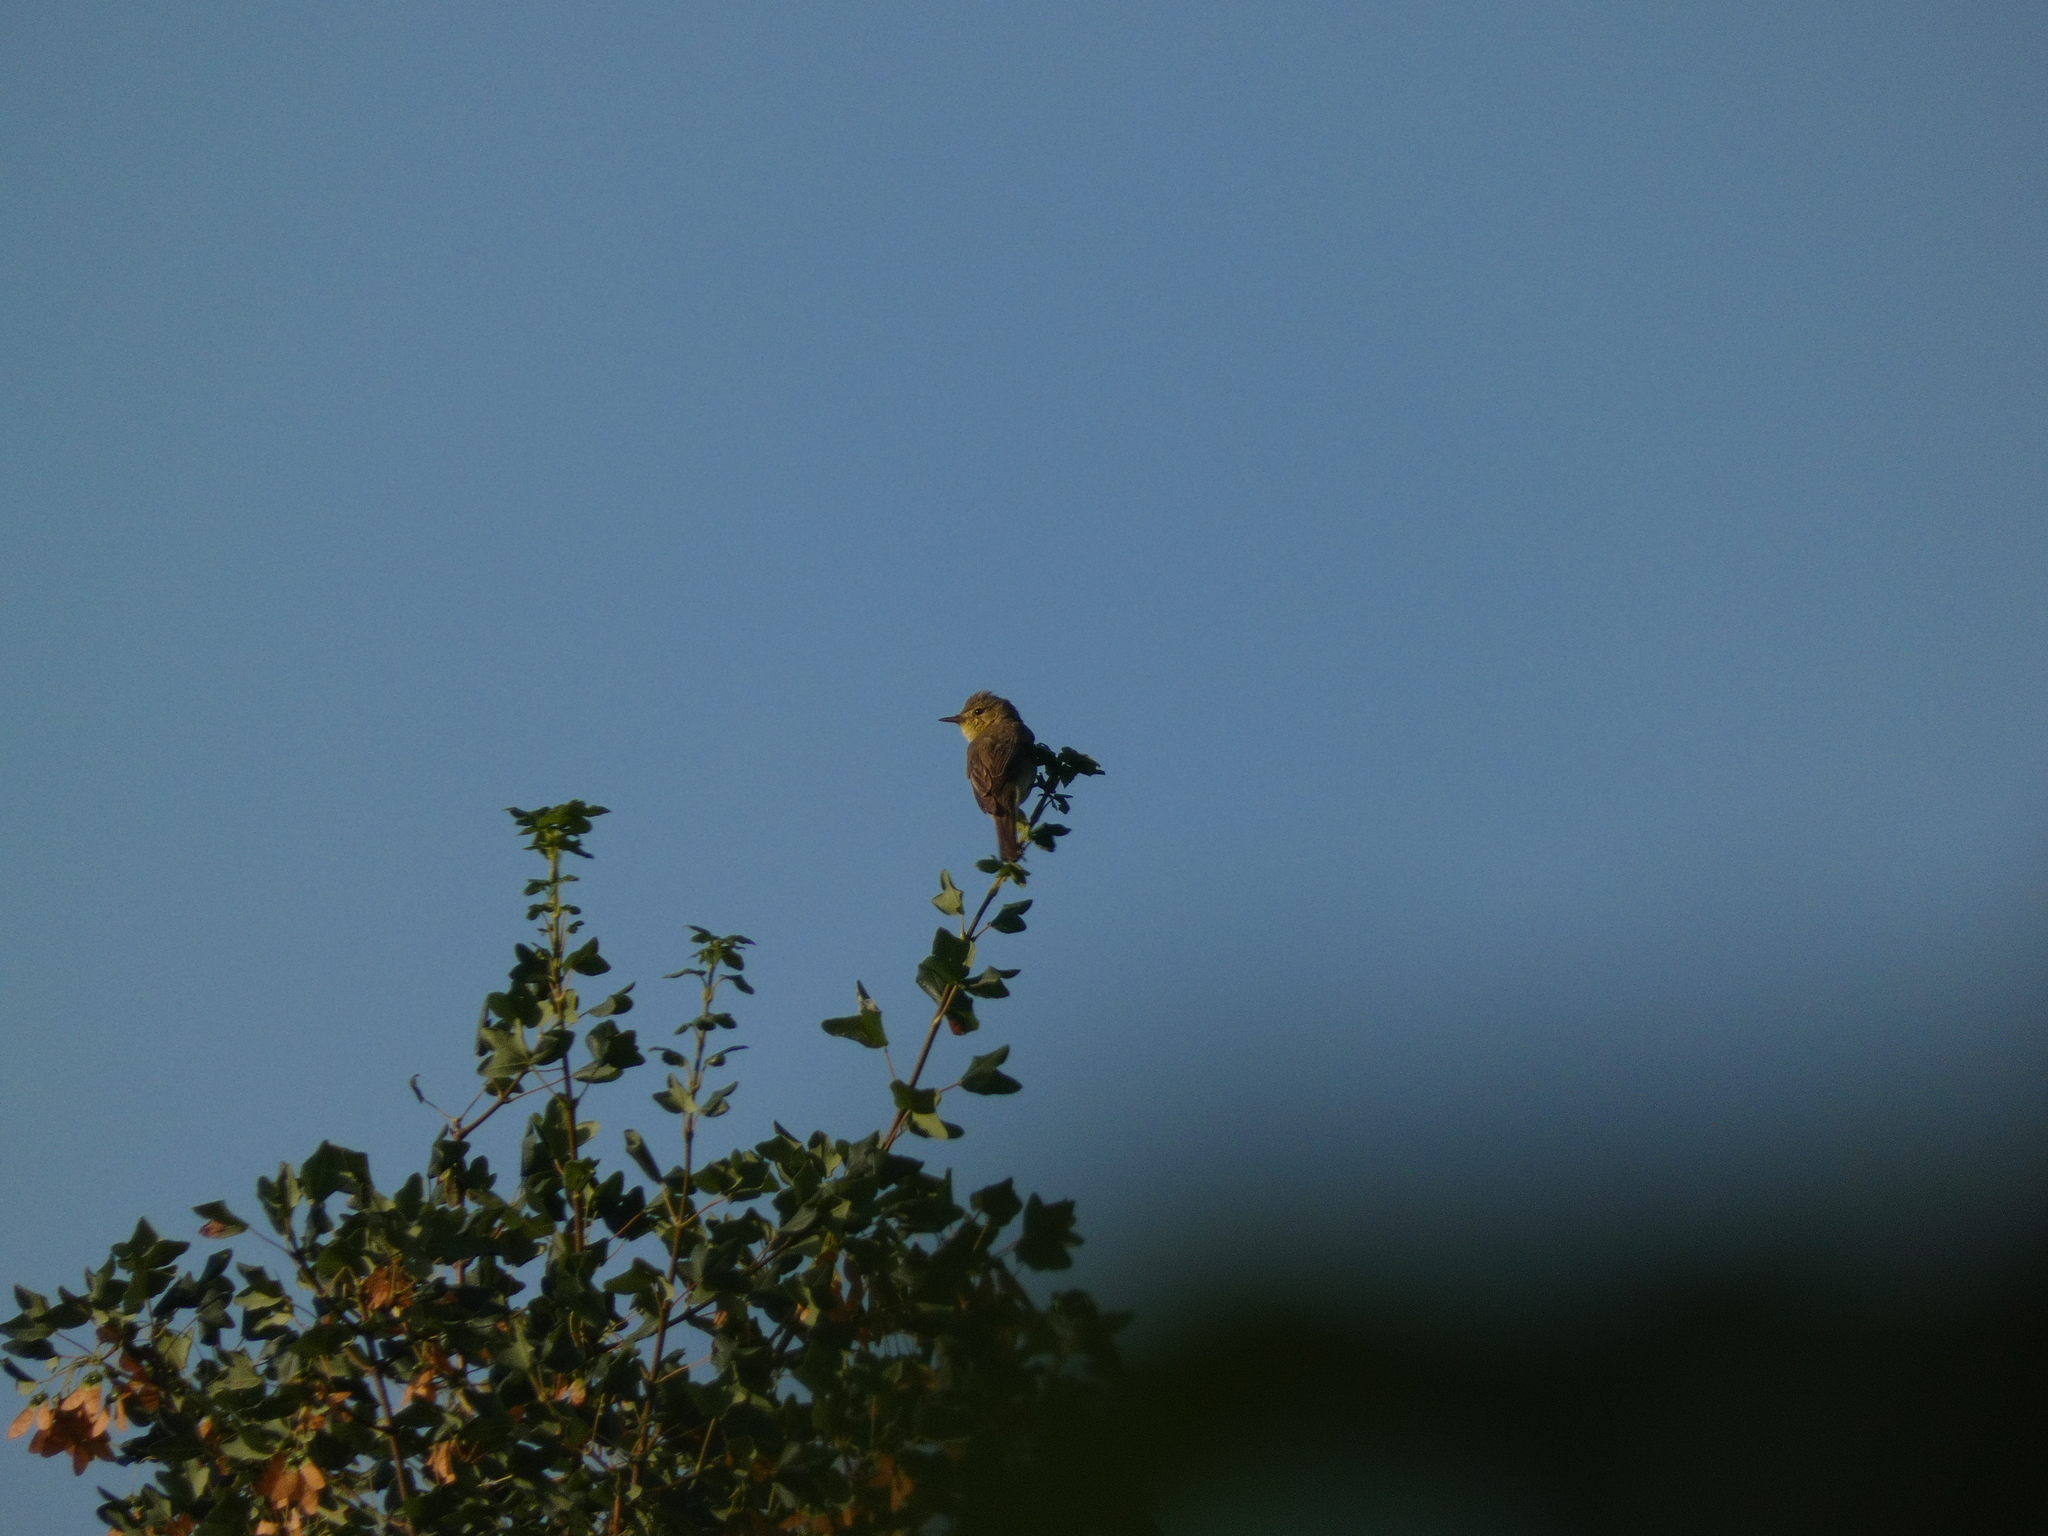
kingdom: Animalia
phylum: Chordata
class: Aves
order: Passeriformes
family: Acrocephalidae
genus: Hippolais
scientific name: Hippolais polyglotta
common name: Melodious warbler
